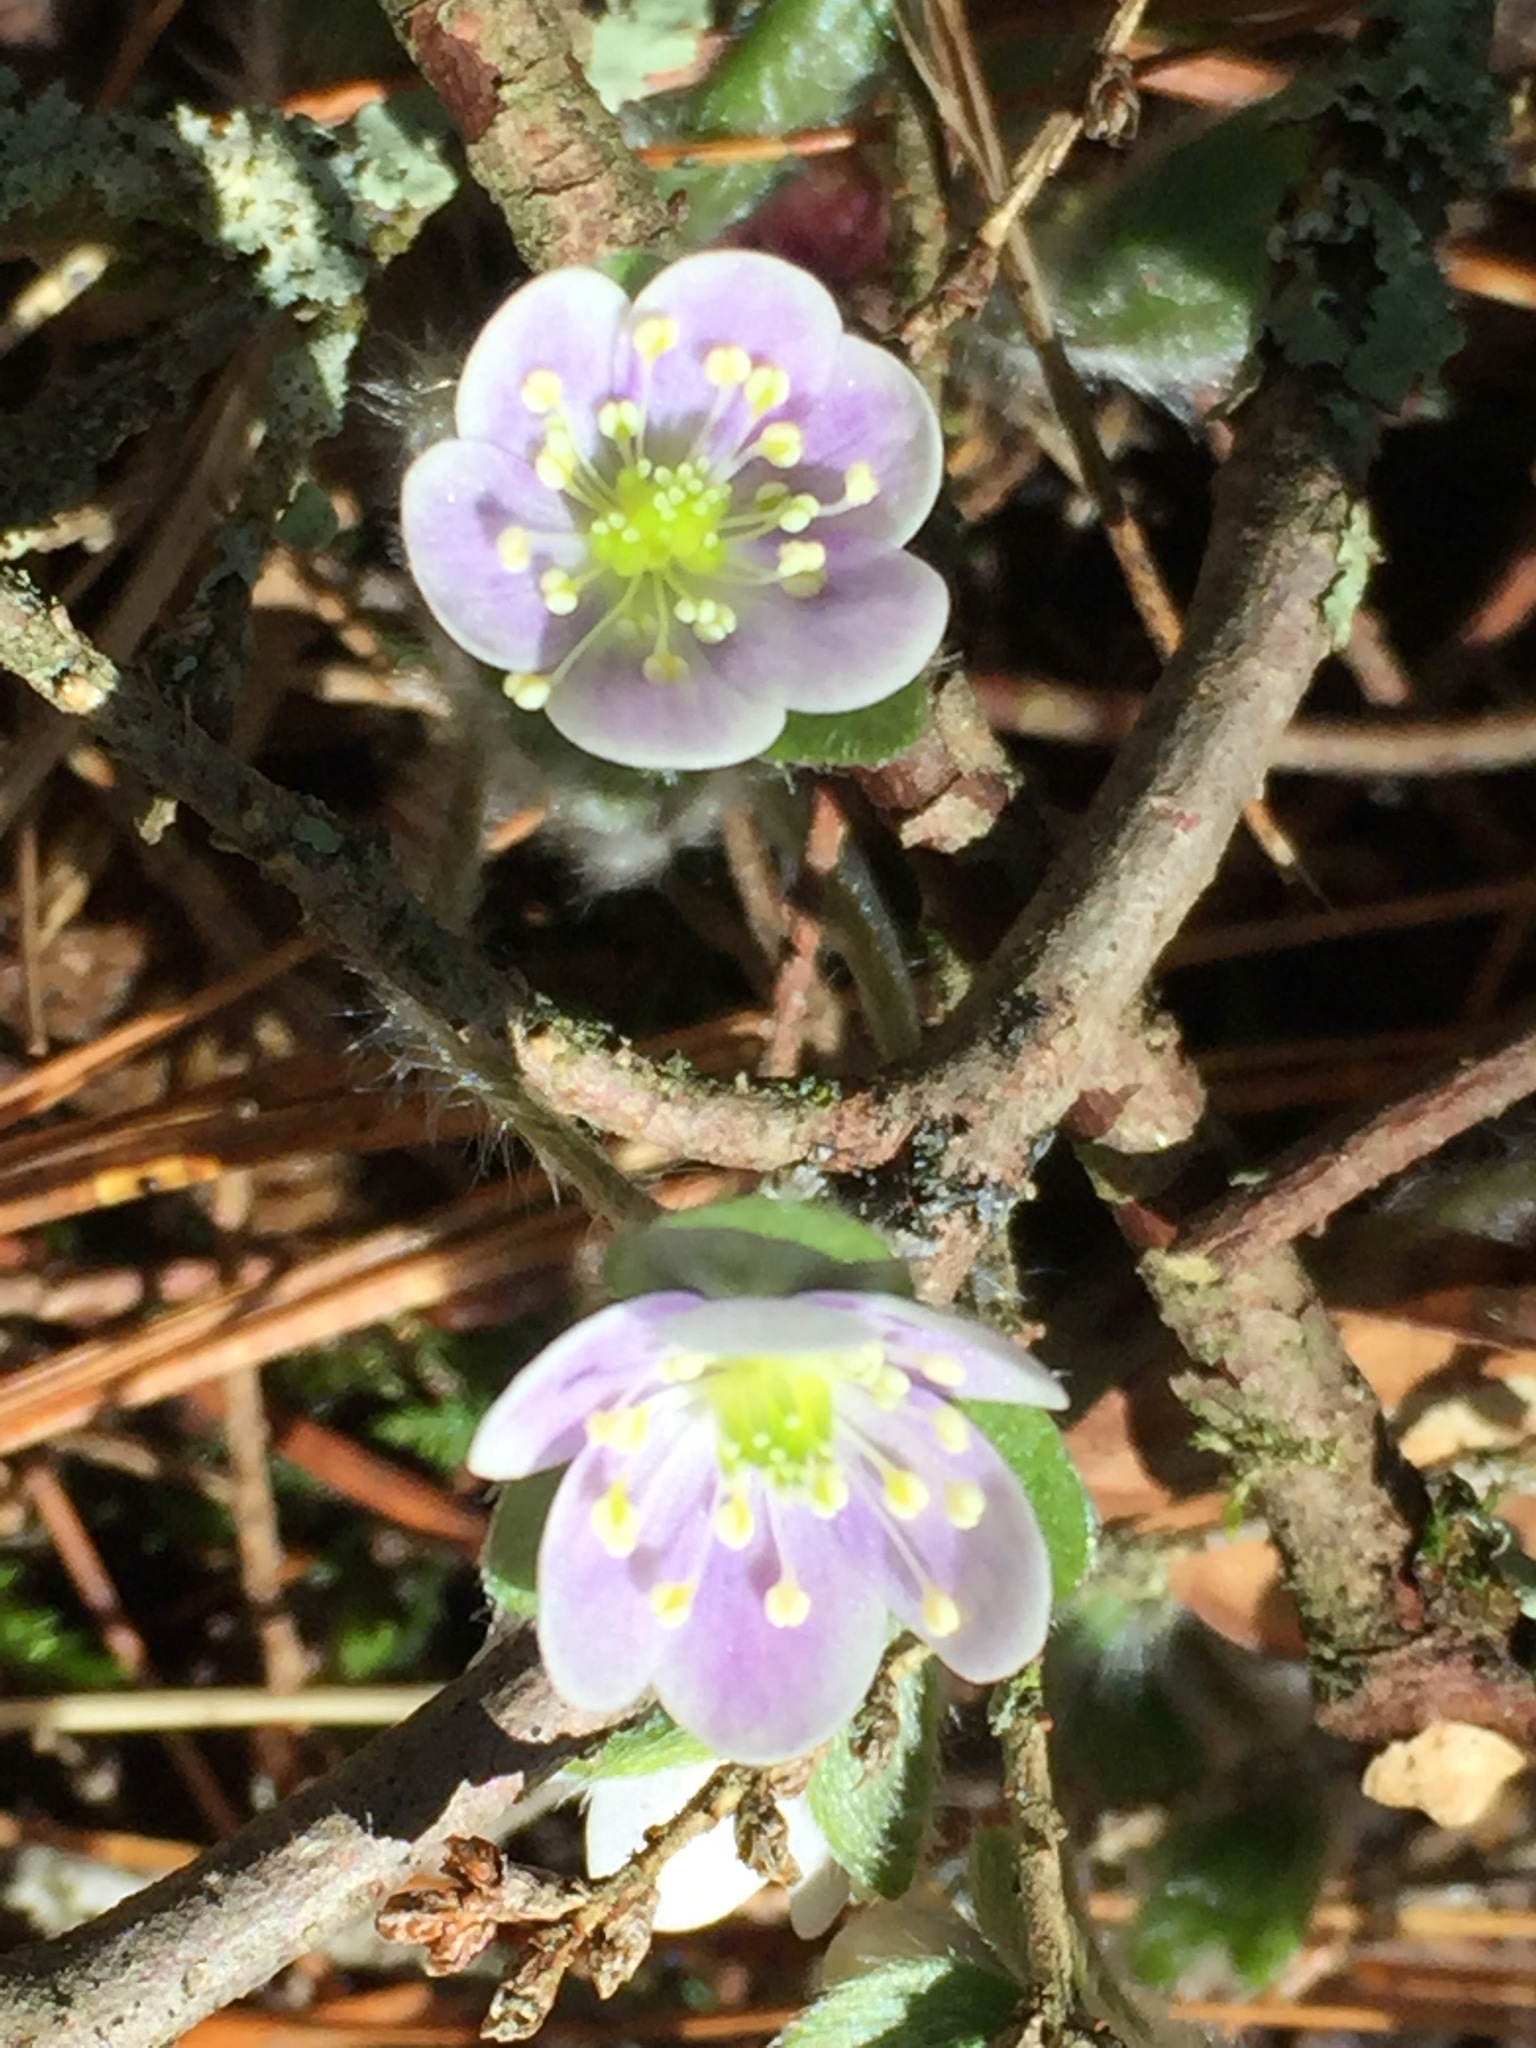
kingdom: Plantae
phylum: Tracheophyta
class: Magnoliopsida
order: Ranunculales
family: Ranunculaceae
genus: Hepatica
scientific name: Hepatica americana
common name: American hepatica
